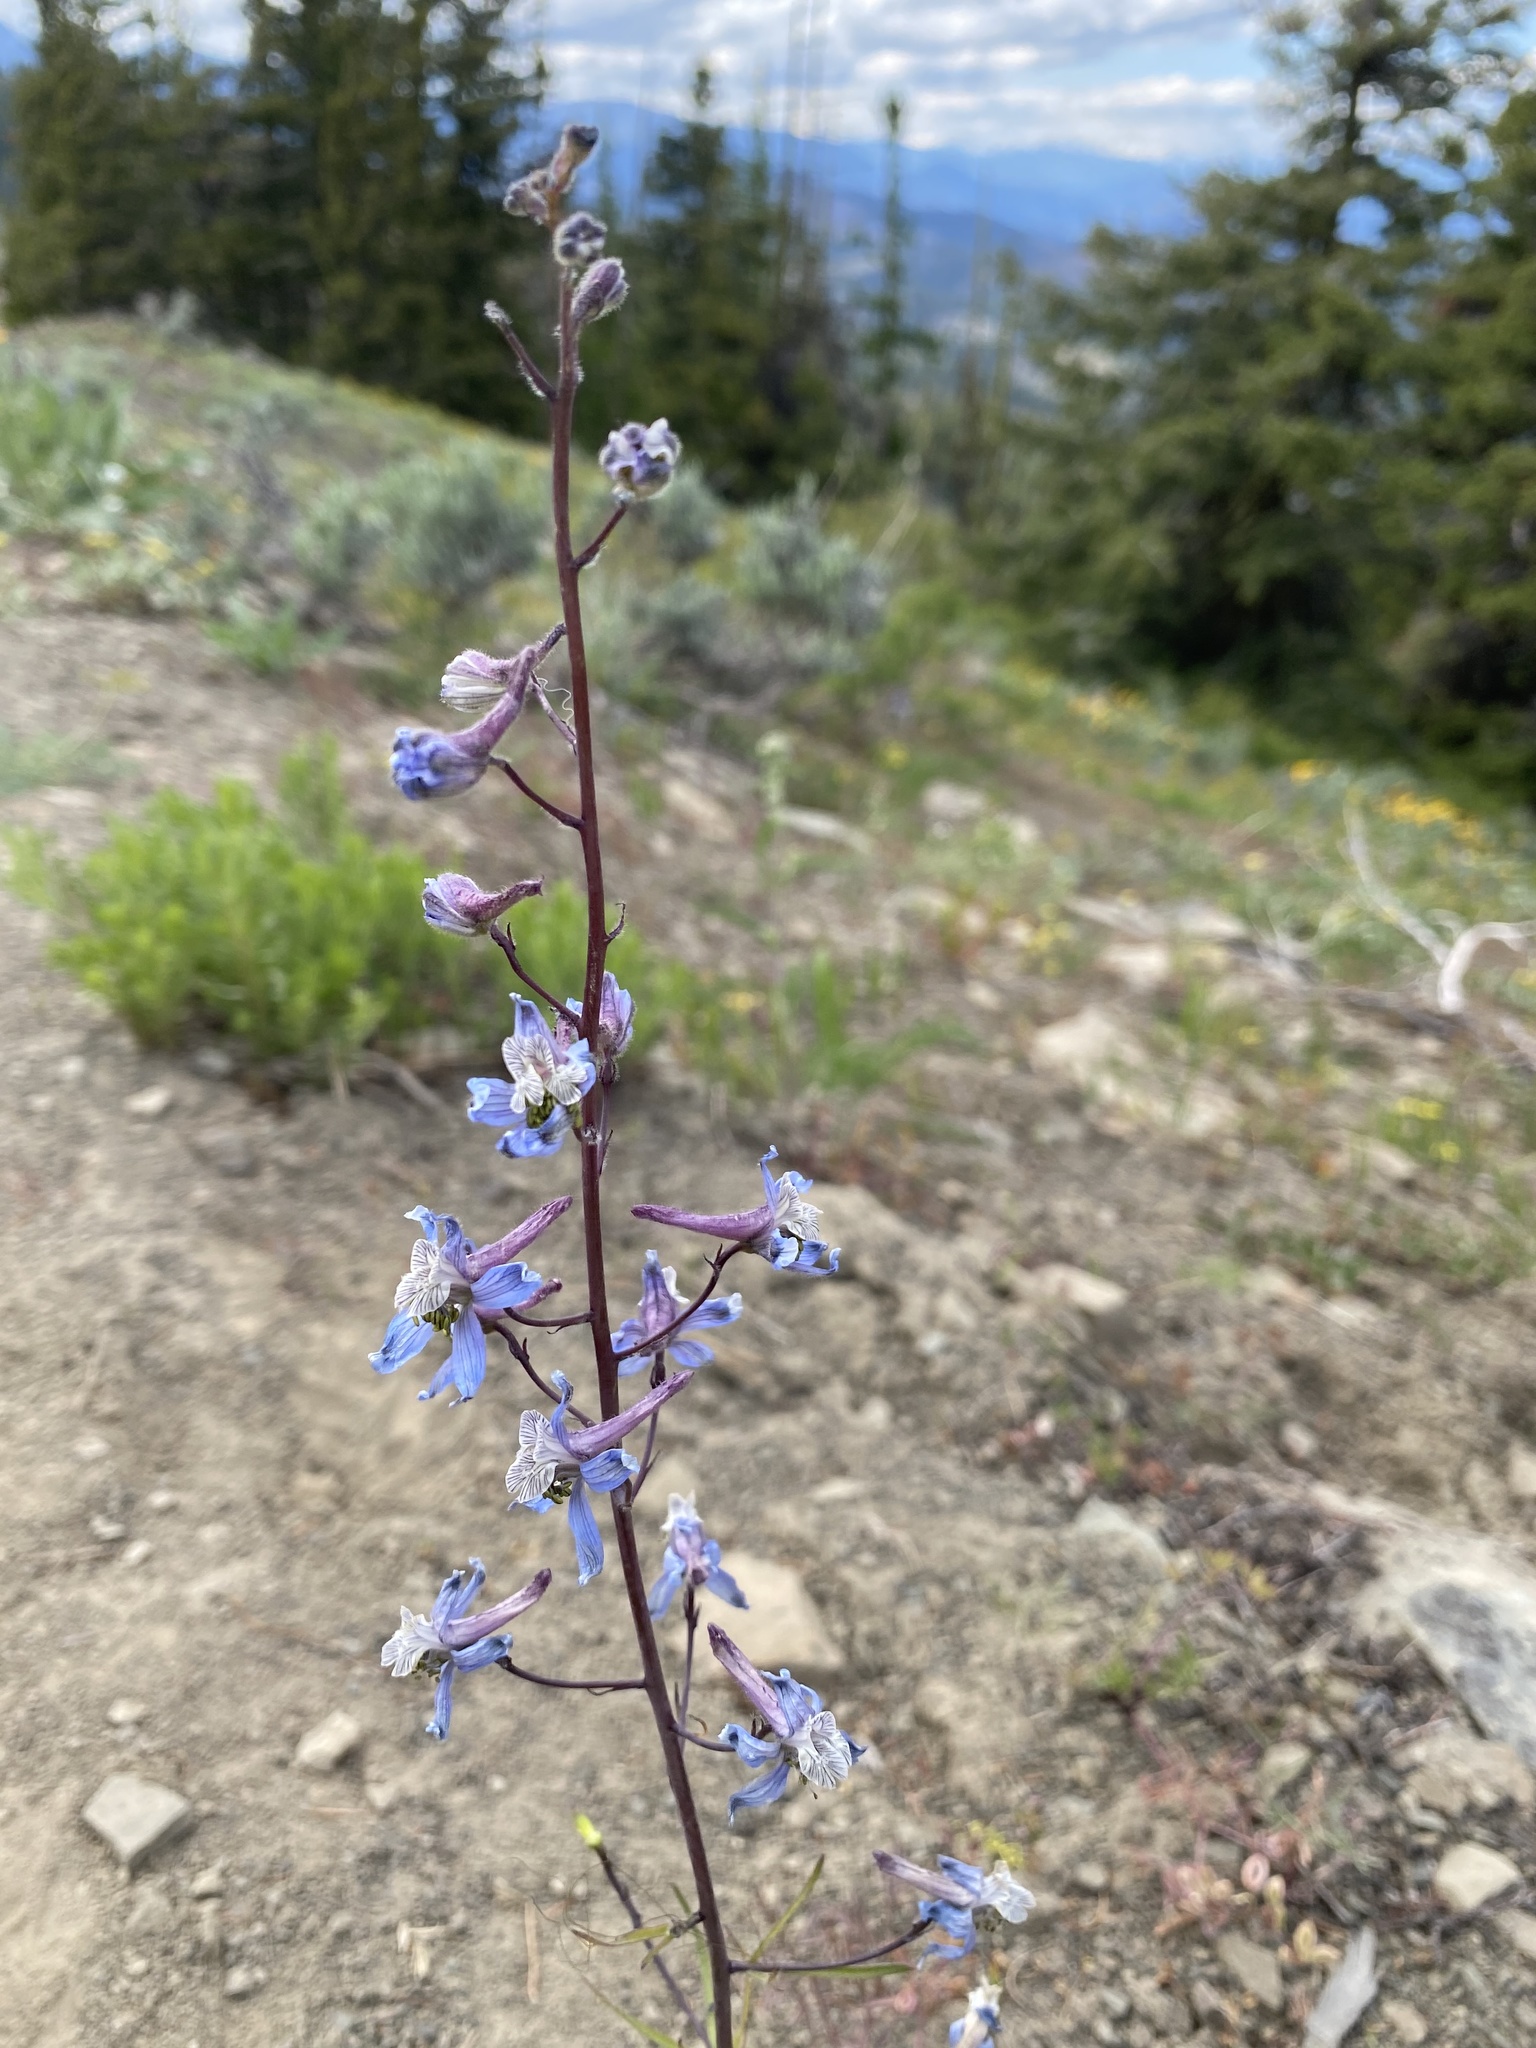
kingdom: Plantae
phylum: Tracheophyta
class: Magnoliopsida
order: Ranunculales
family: Ranunculaceae
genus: Delphinium
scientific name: Delphinium lineapetalum
